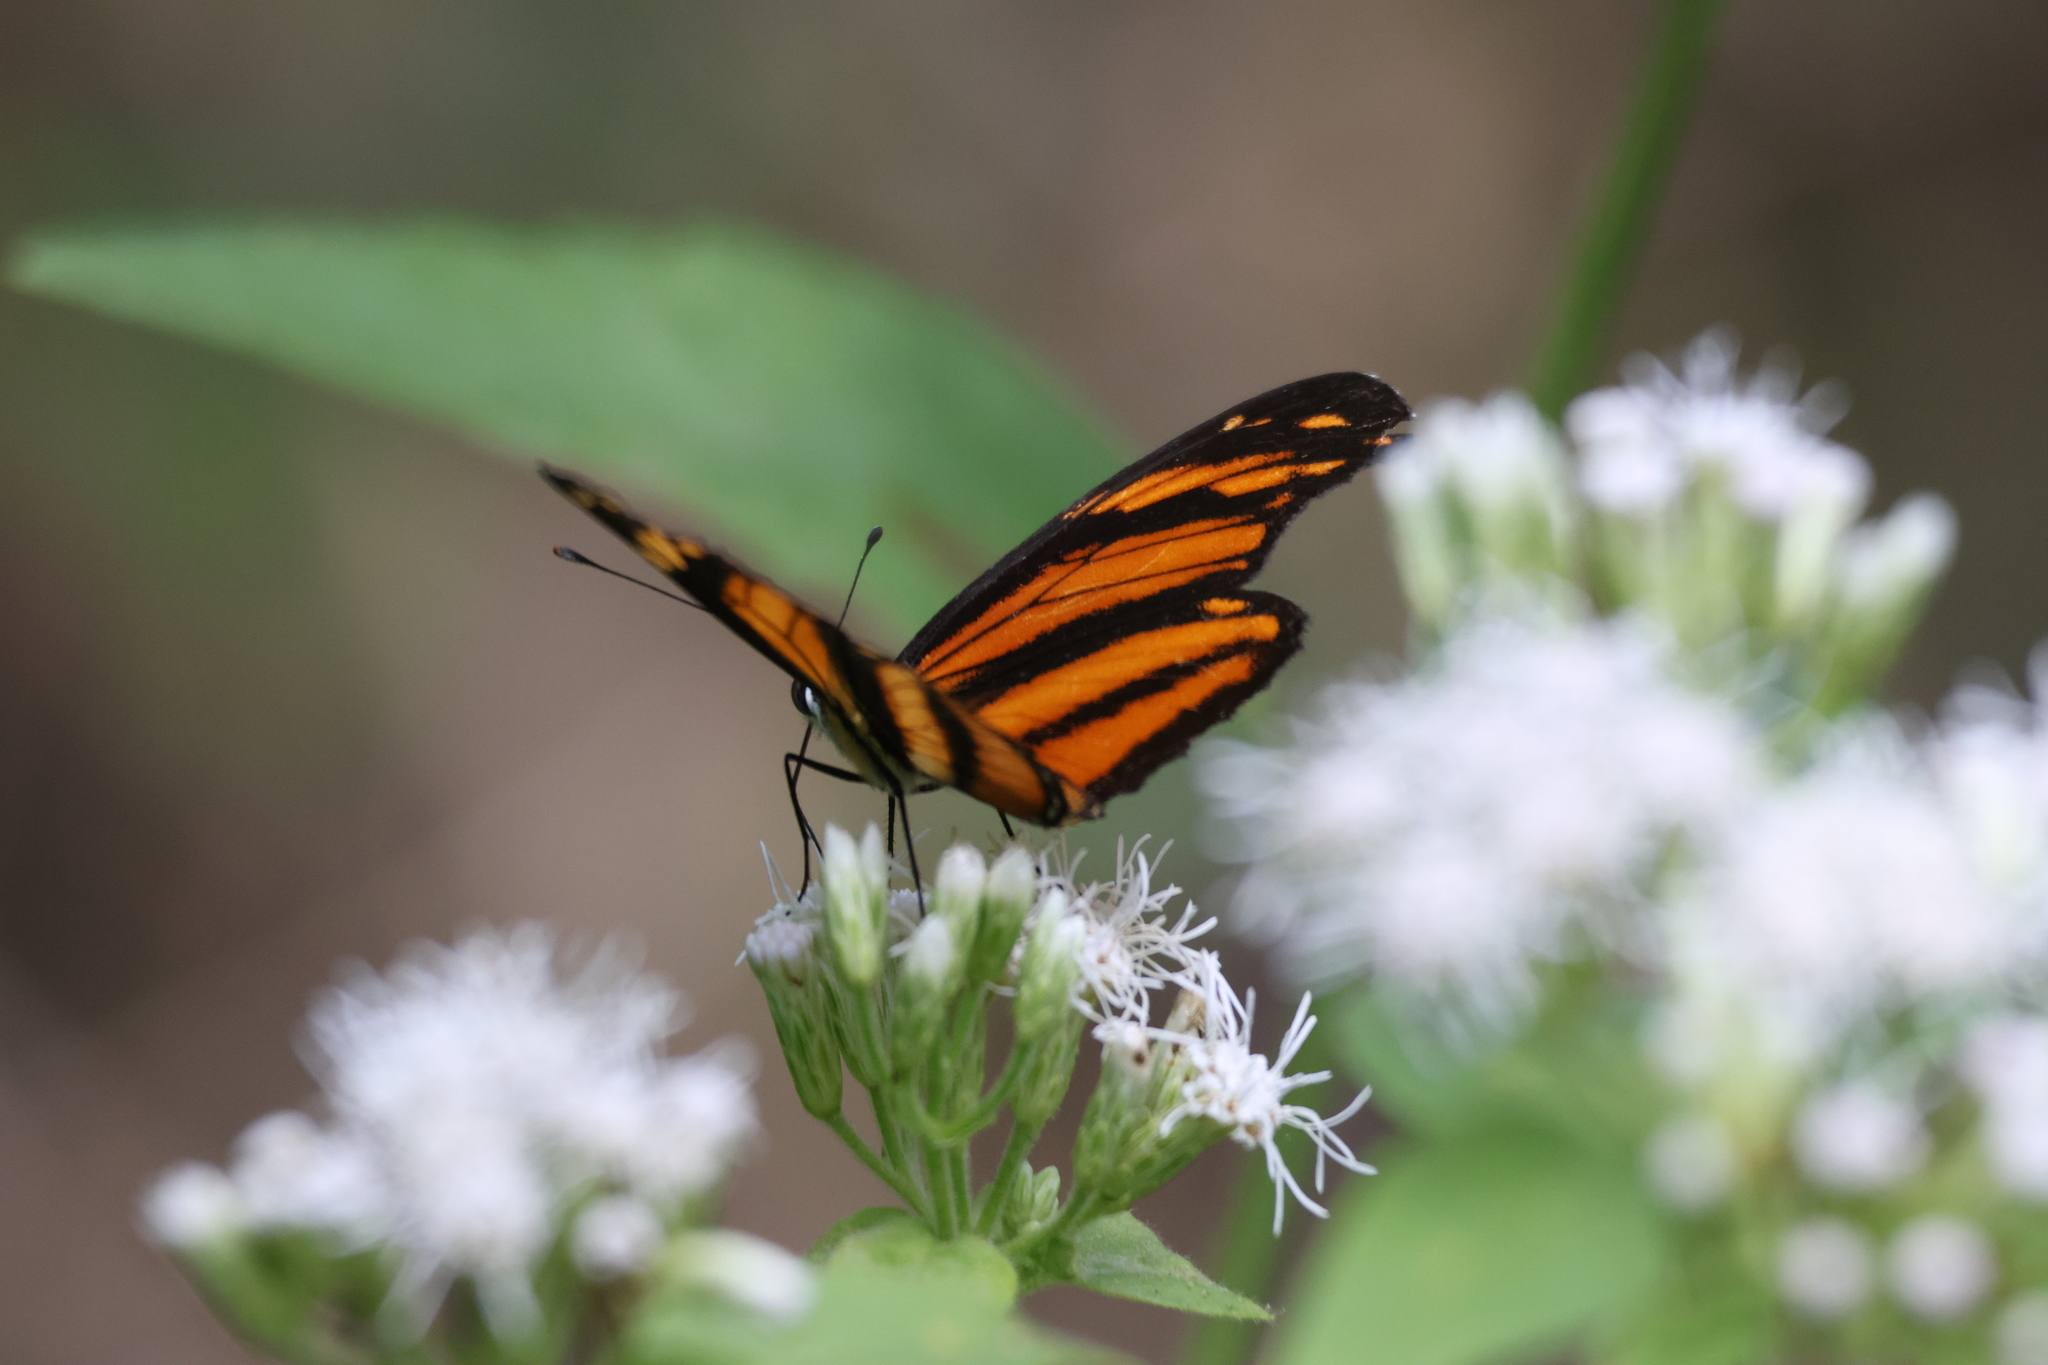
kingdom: Animalia
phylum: Arthropoda
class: Insecta
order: Lepidoptera
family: Nymphalidae
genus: Eresia
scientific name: Eresia phillyra
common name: Longwing crescent
